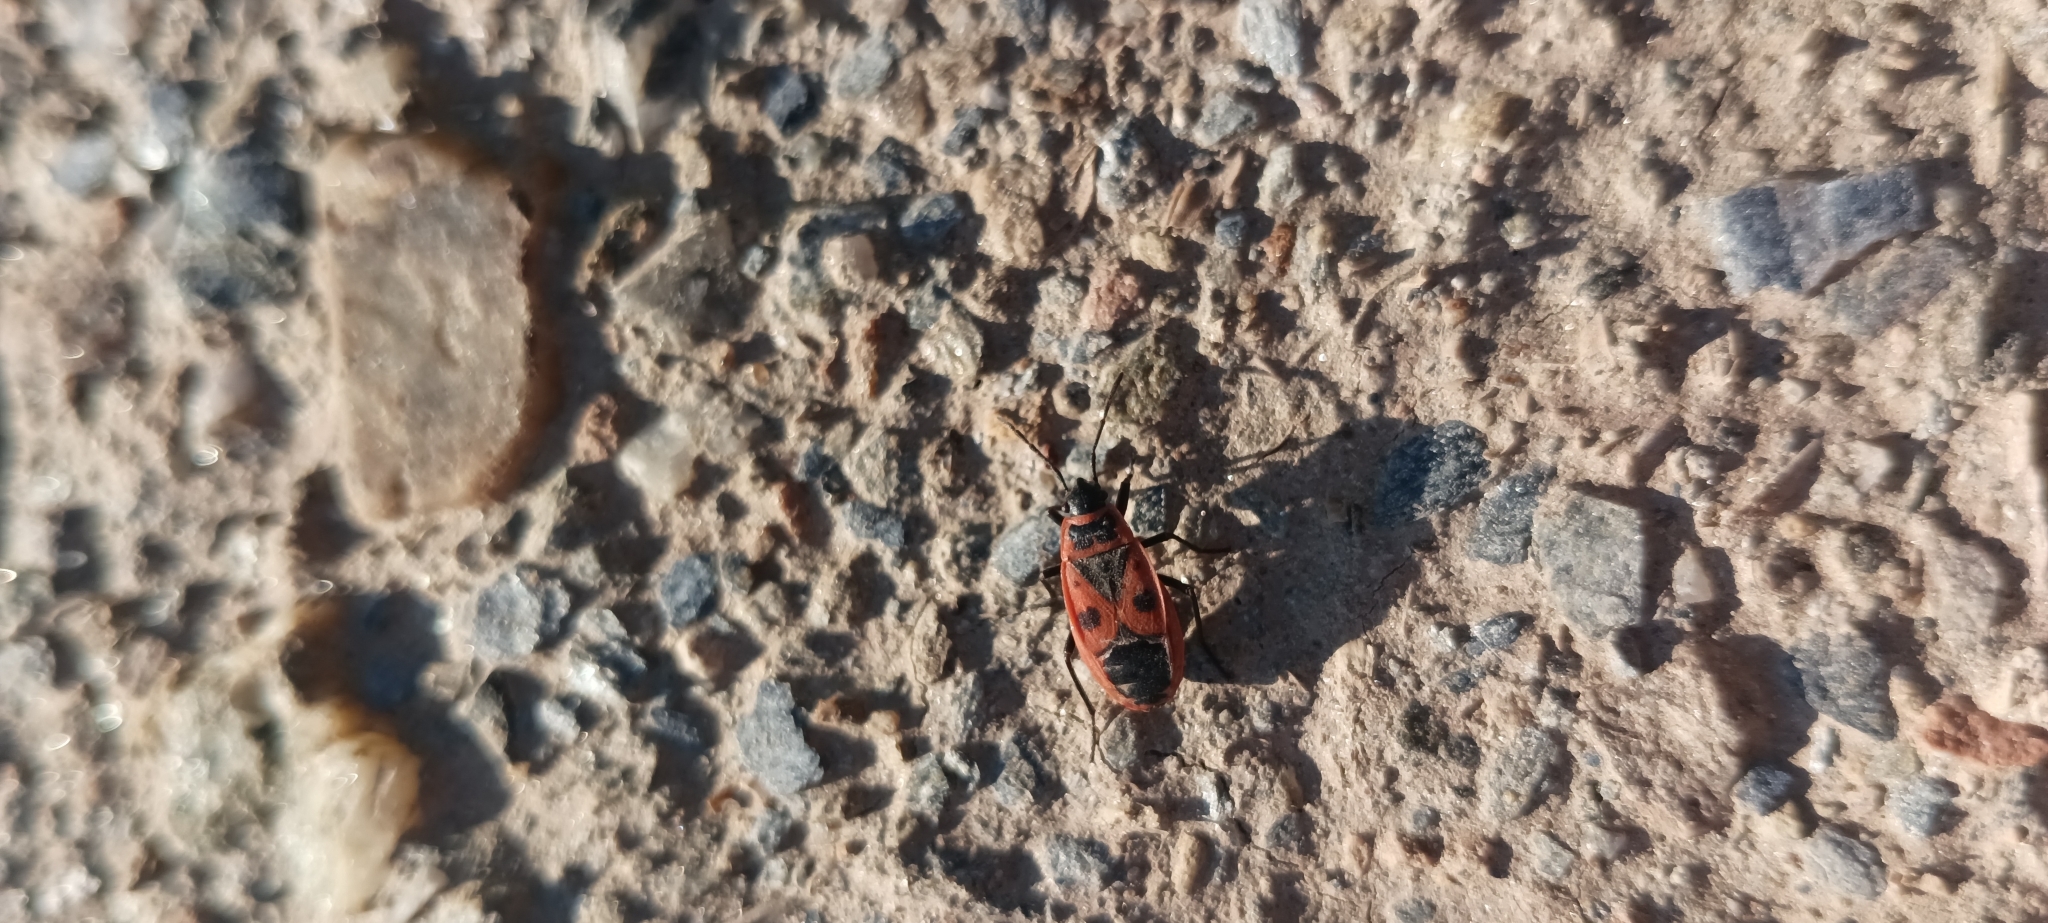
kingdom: Animalia
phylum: Arthropoda
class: Insecta
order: Hemiptera
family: Pyrrhocoridae
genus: Pyrrhocoris
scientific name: Pyrrhocoris apterus
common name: Firebug
